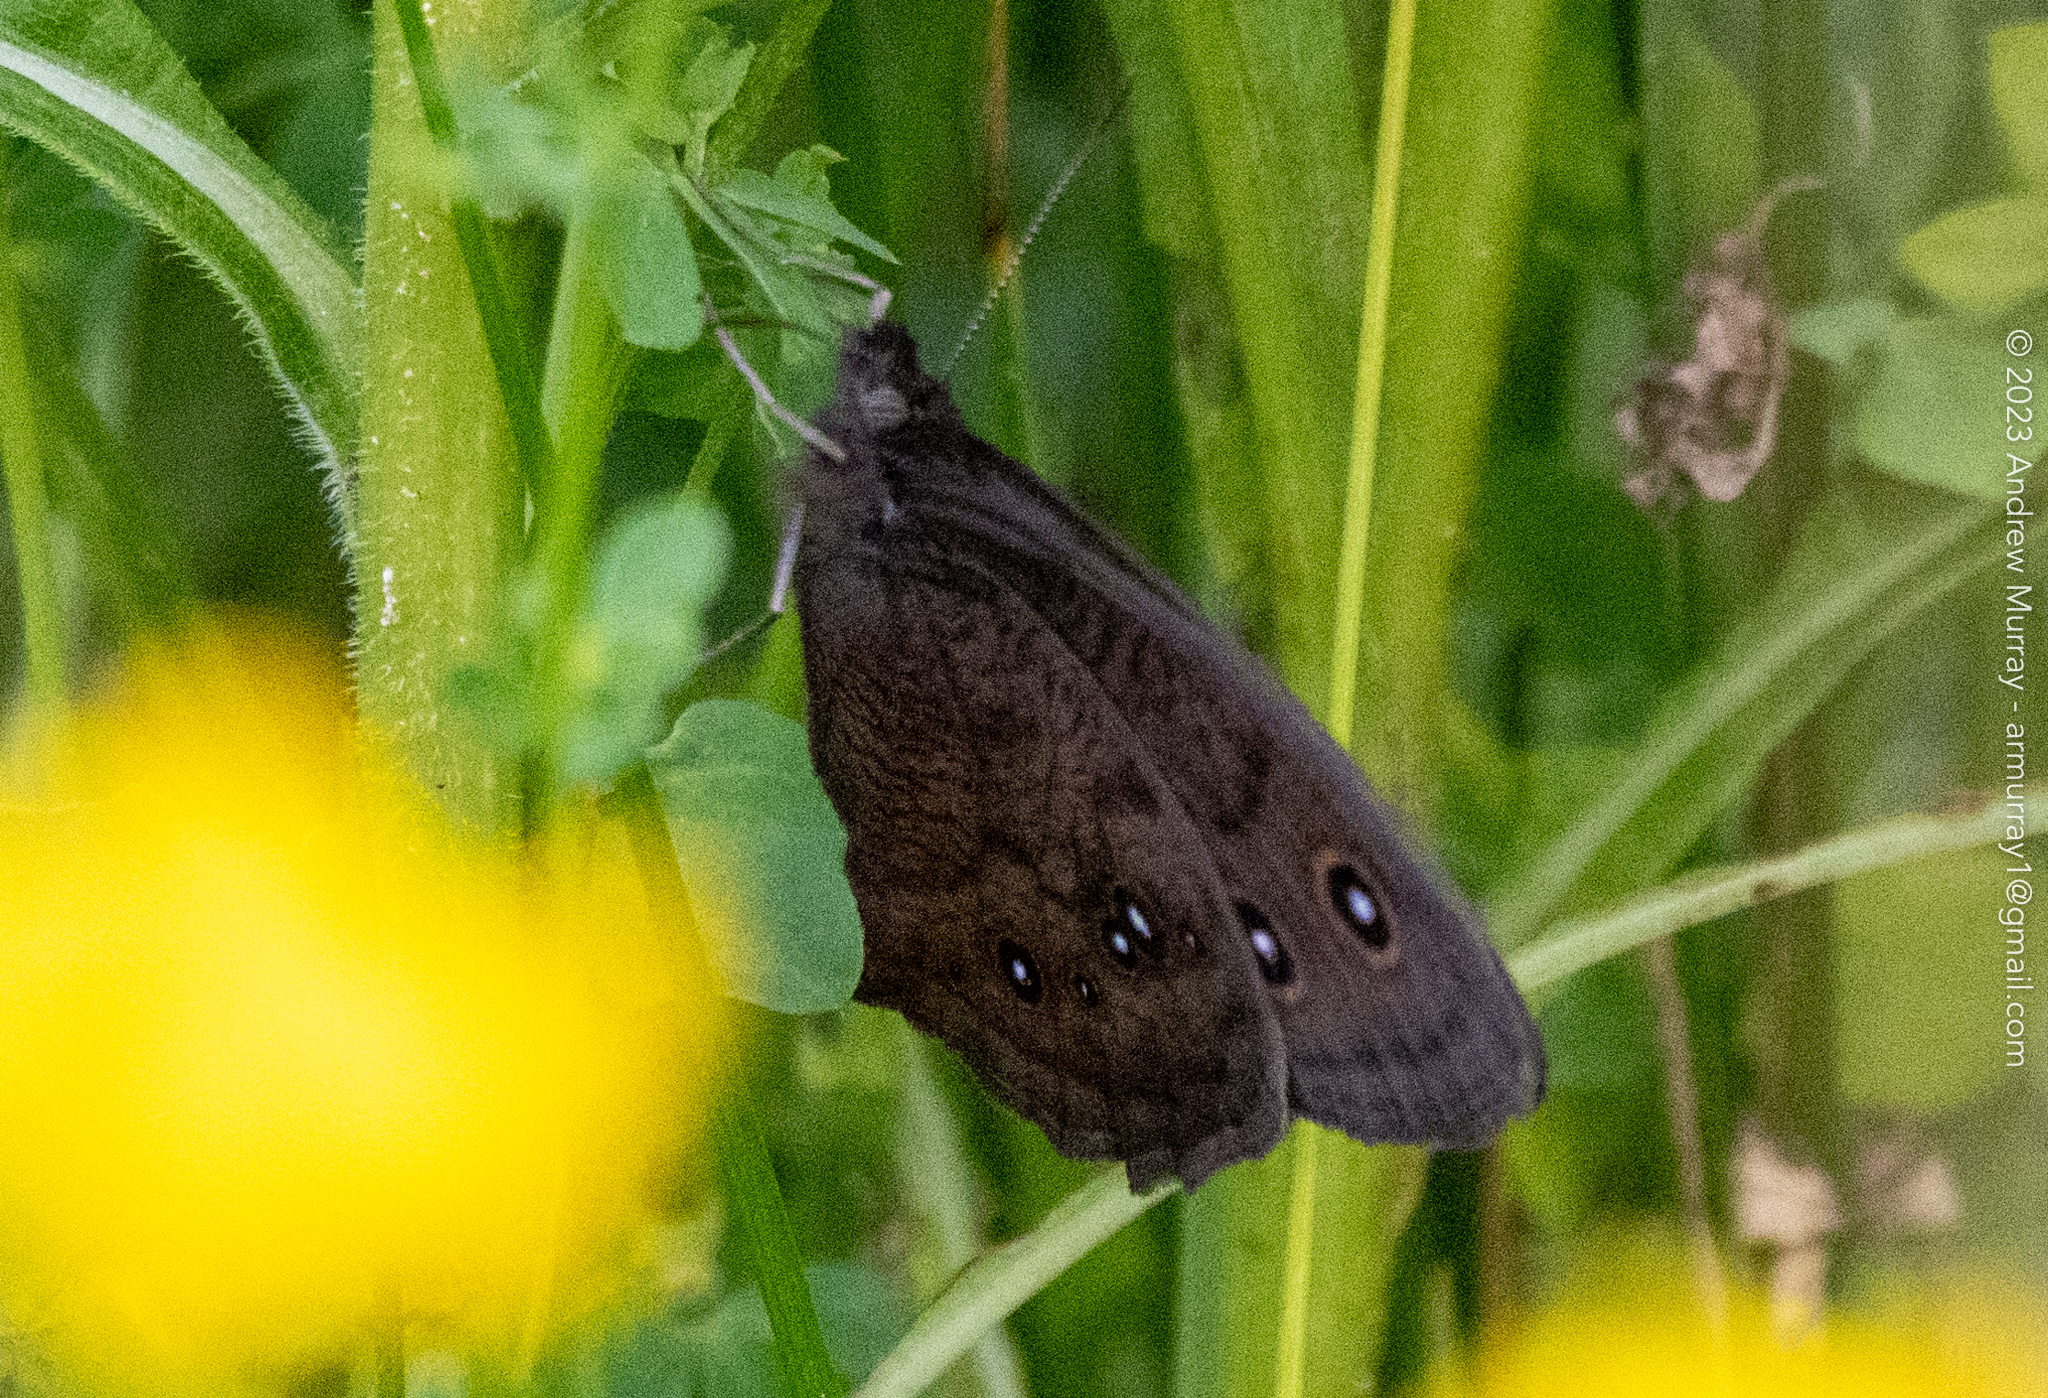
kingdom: Animalia
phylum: Arthropoda
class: Insecta
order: Lepidoptera
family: Nymphalidae
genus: Cercyonis
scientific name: Cercyonis pegala
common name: Common wood-nymph
